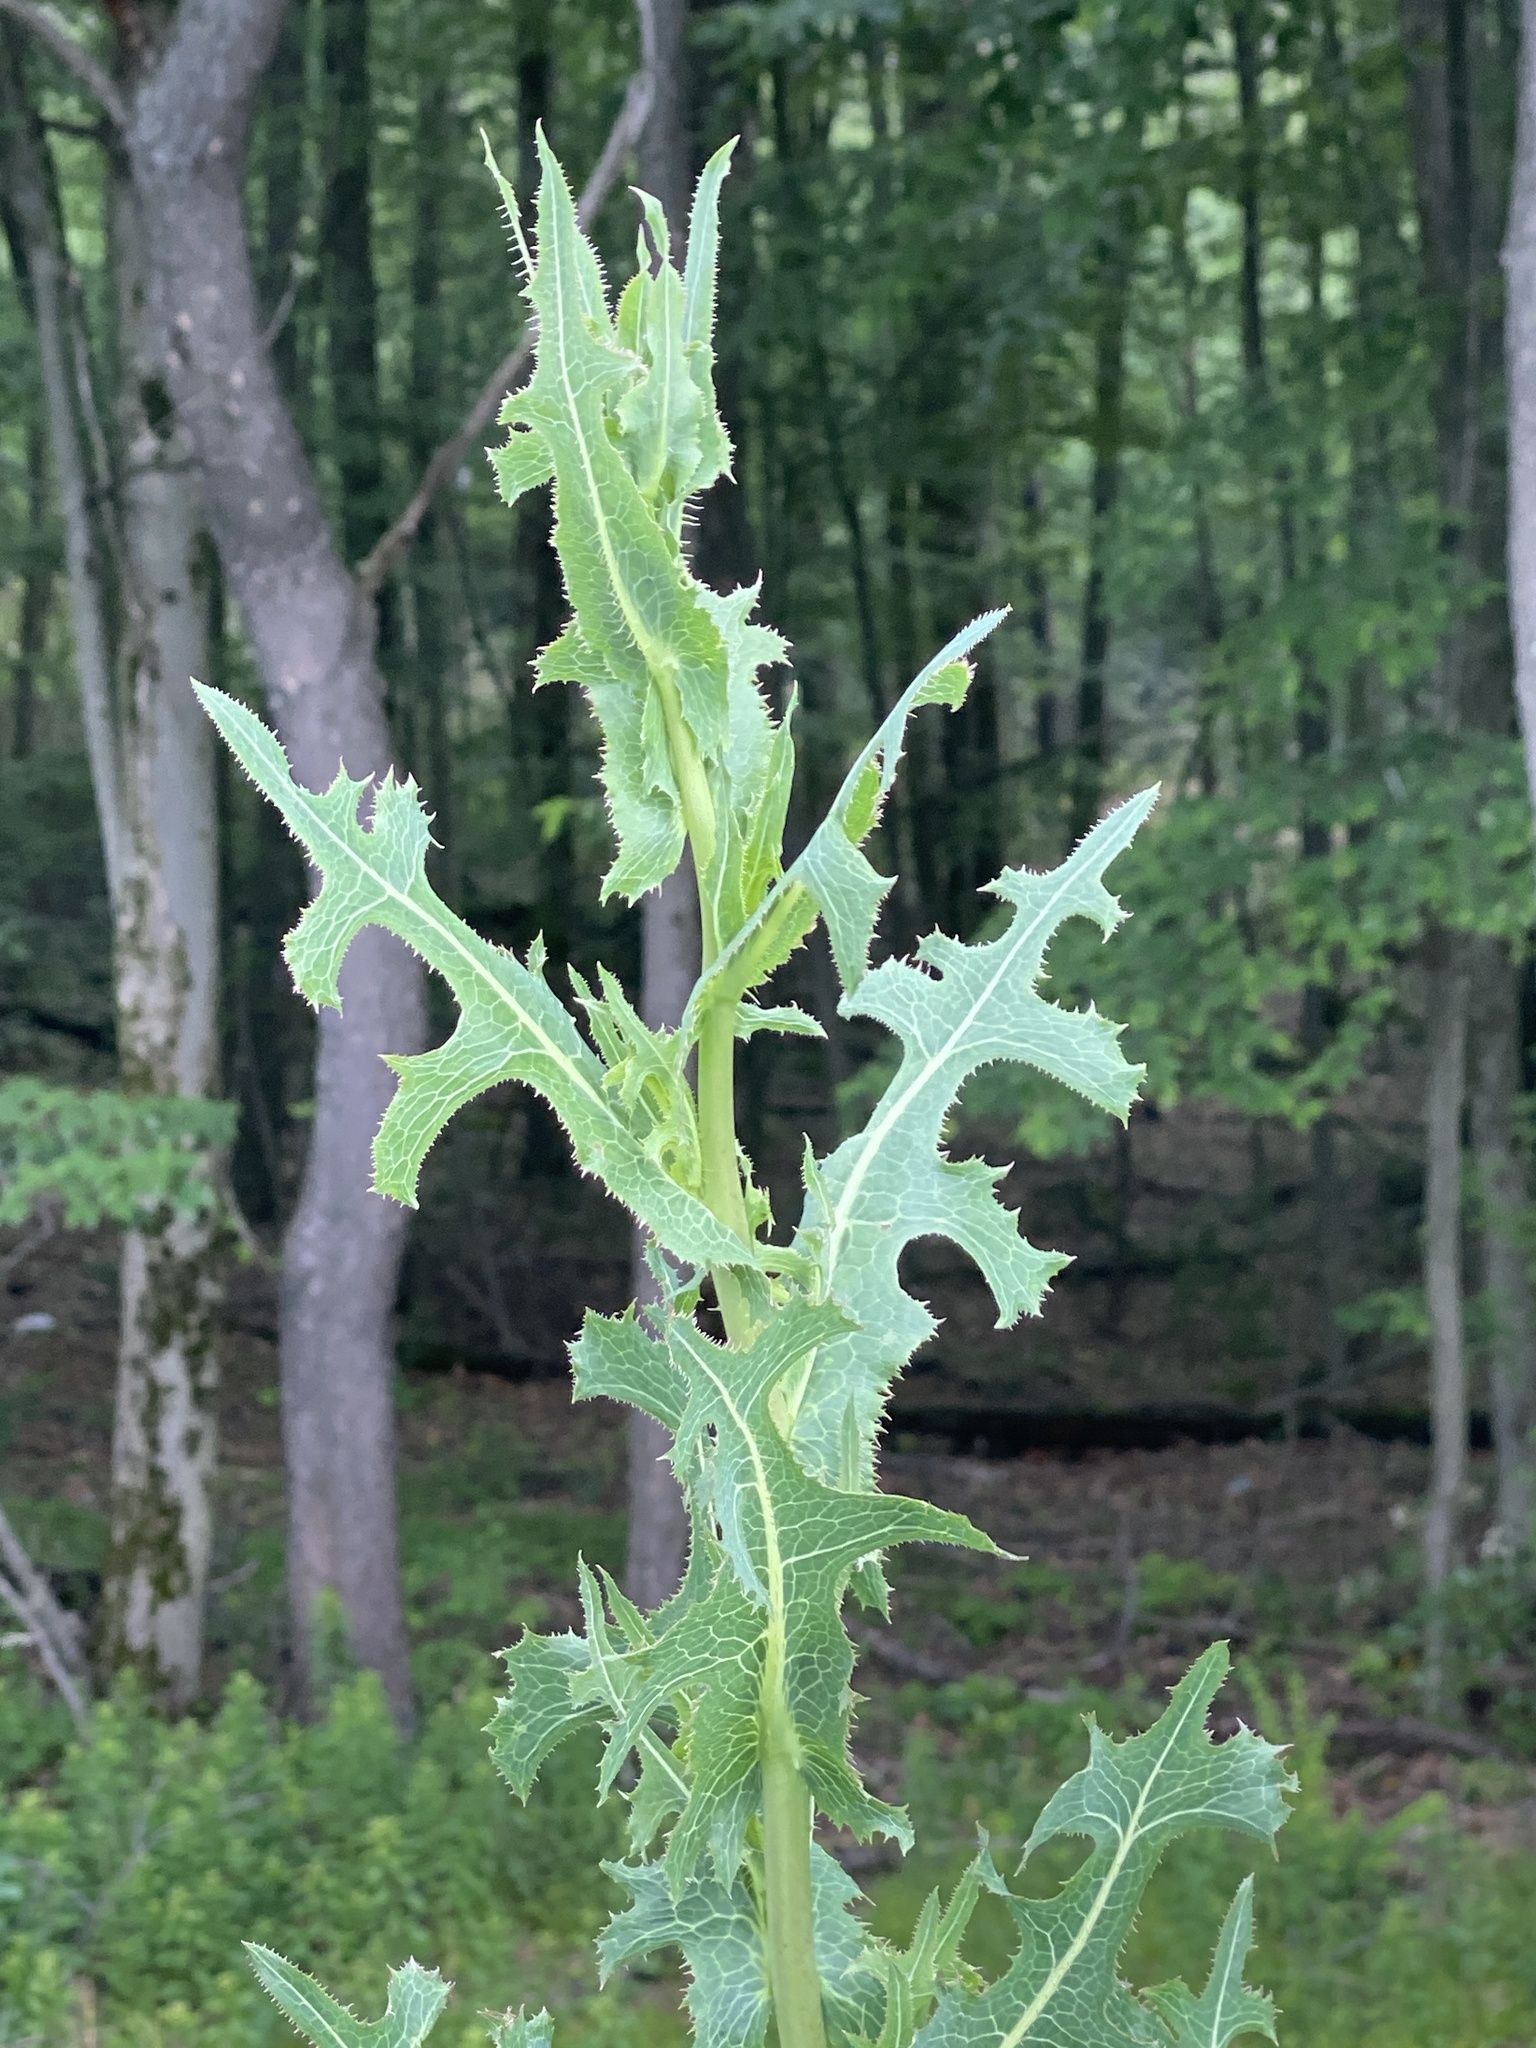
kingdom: Plantae
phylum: Tracheophyta
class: Magnoliopsida
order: Asterales
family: Asteraceae
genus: Lactuca
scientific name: Lactuca serriola
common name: Prickly lettuce
